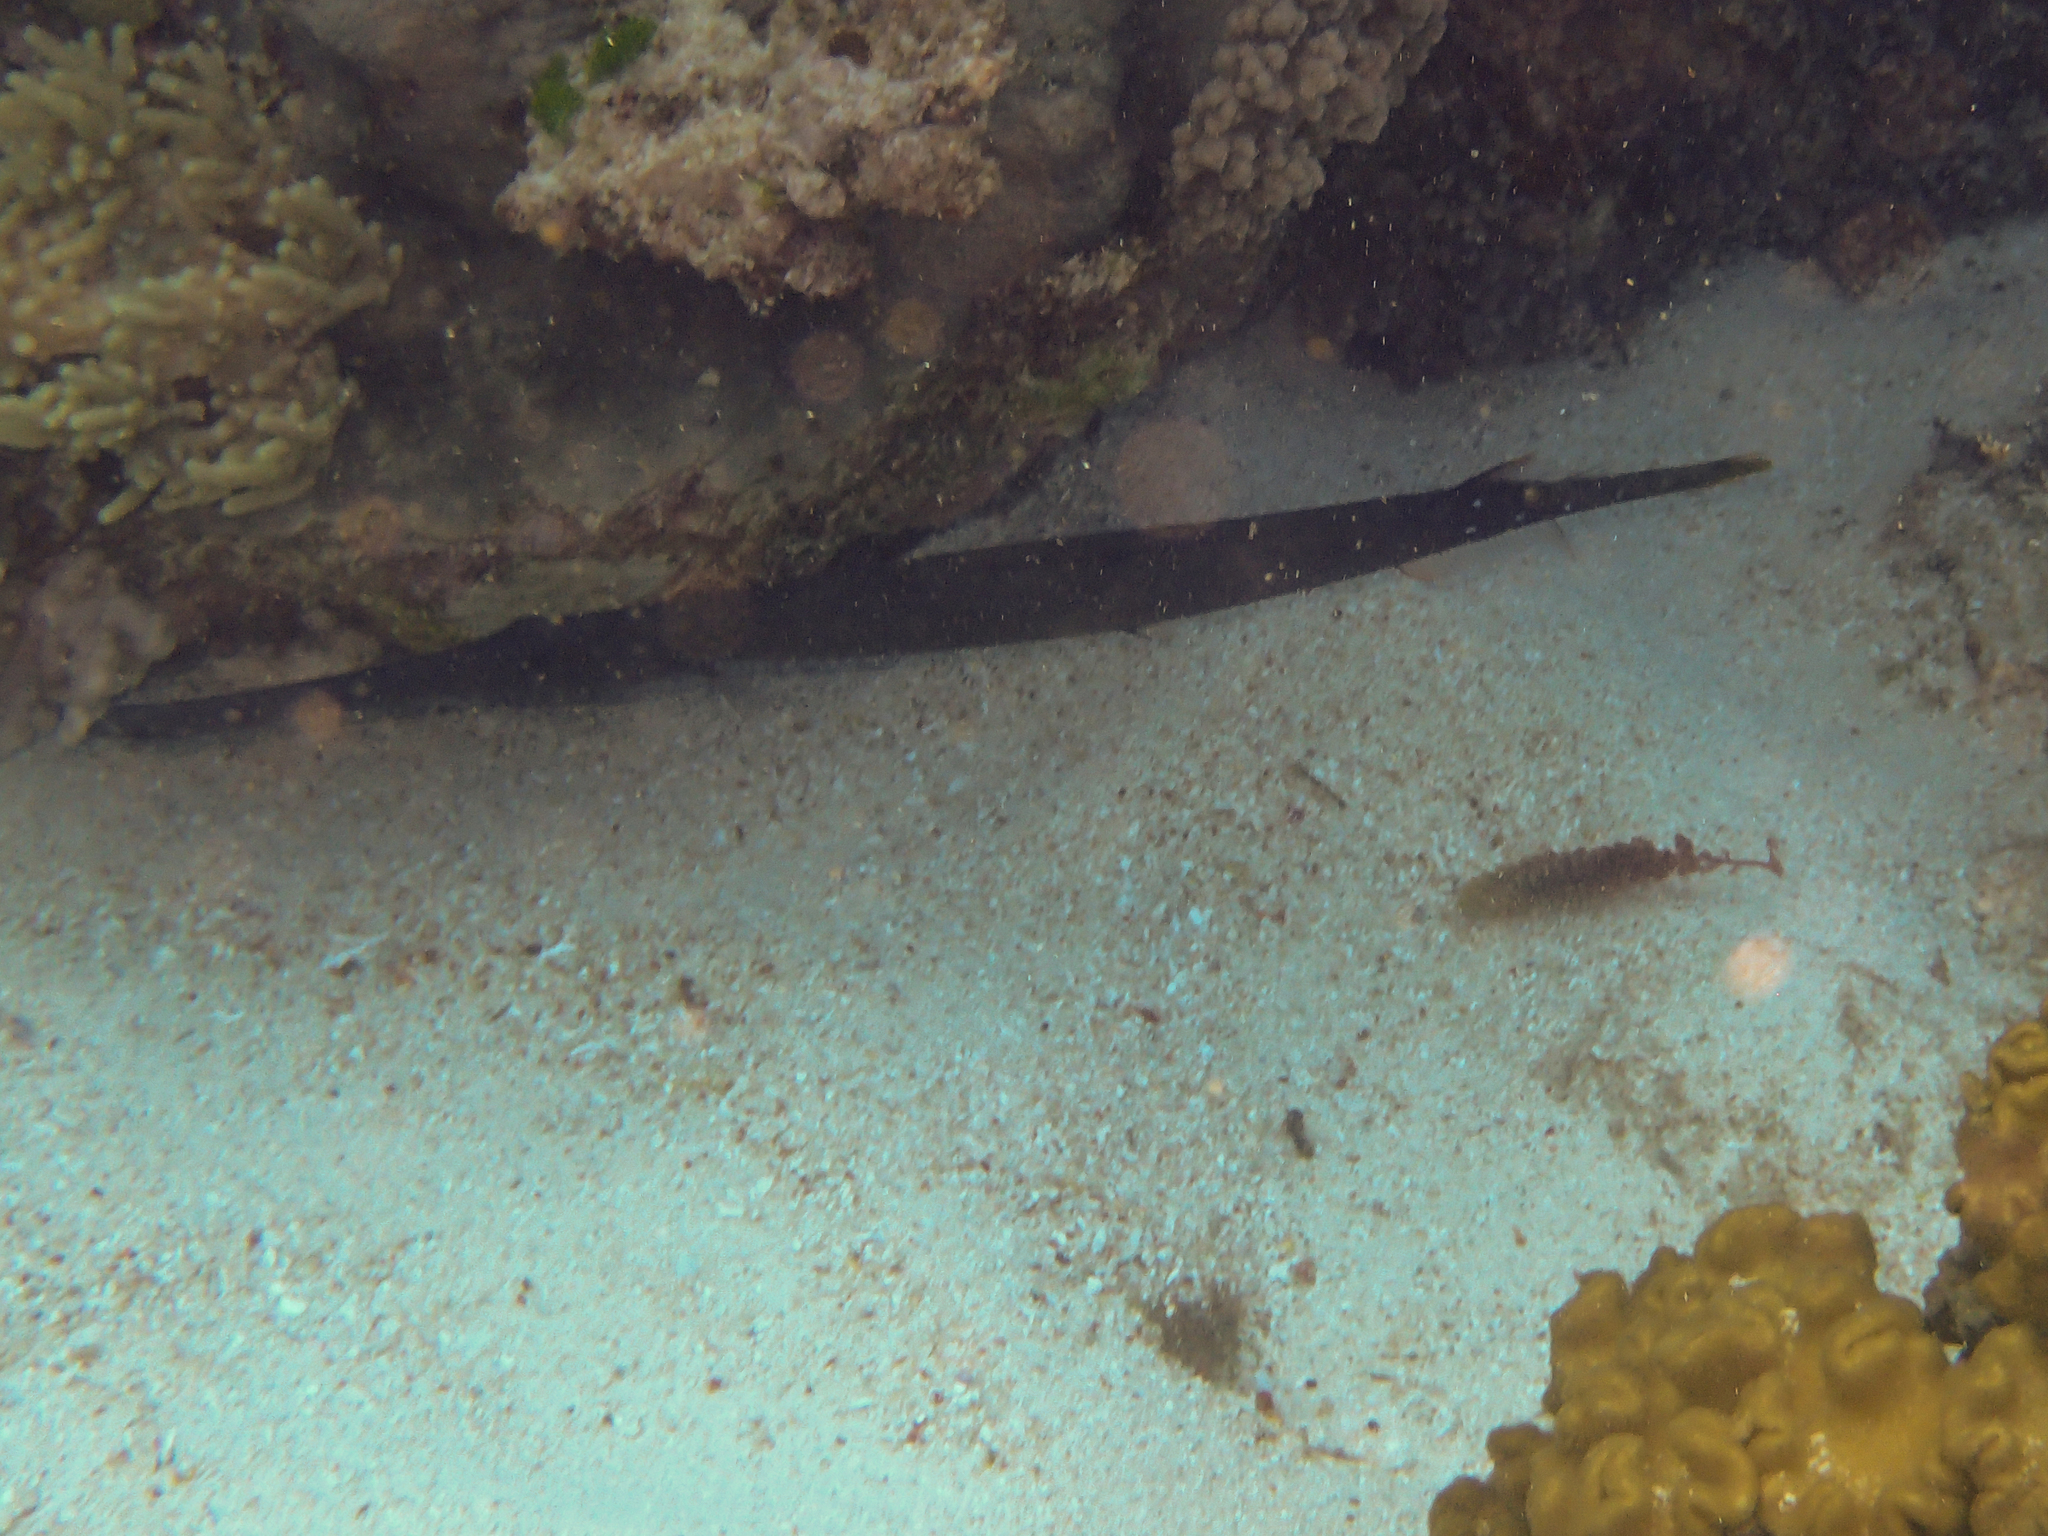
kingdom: Animalia
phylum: Chordata
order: Syngnathiformes
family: Aulostomidae
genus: Aulostomus
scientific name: Aulostomus chinensis
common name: Chinese trumpetfish
